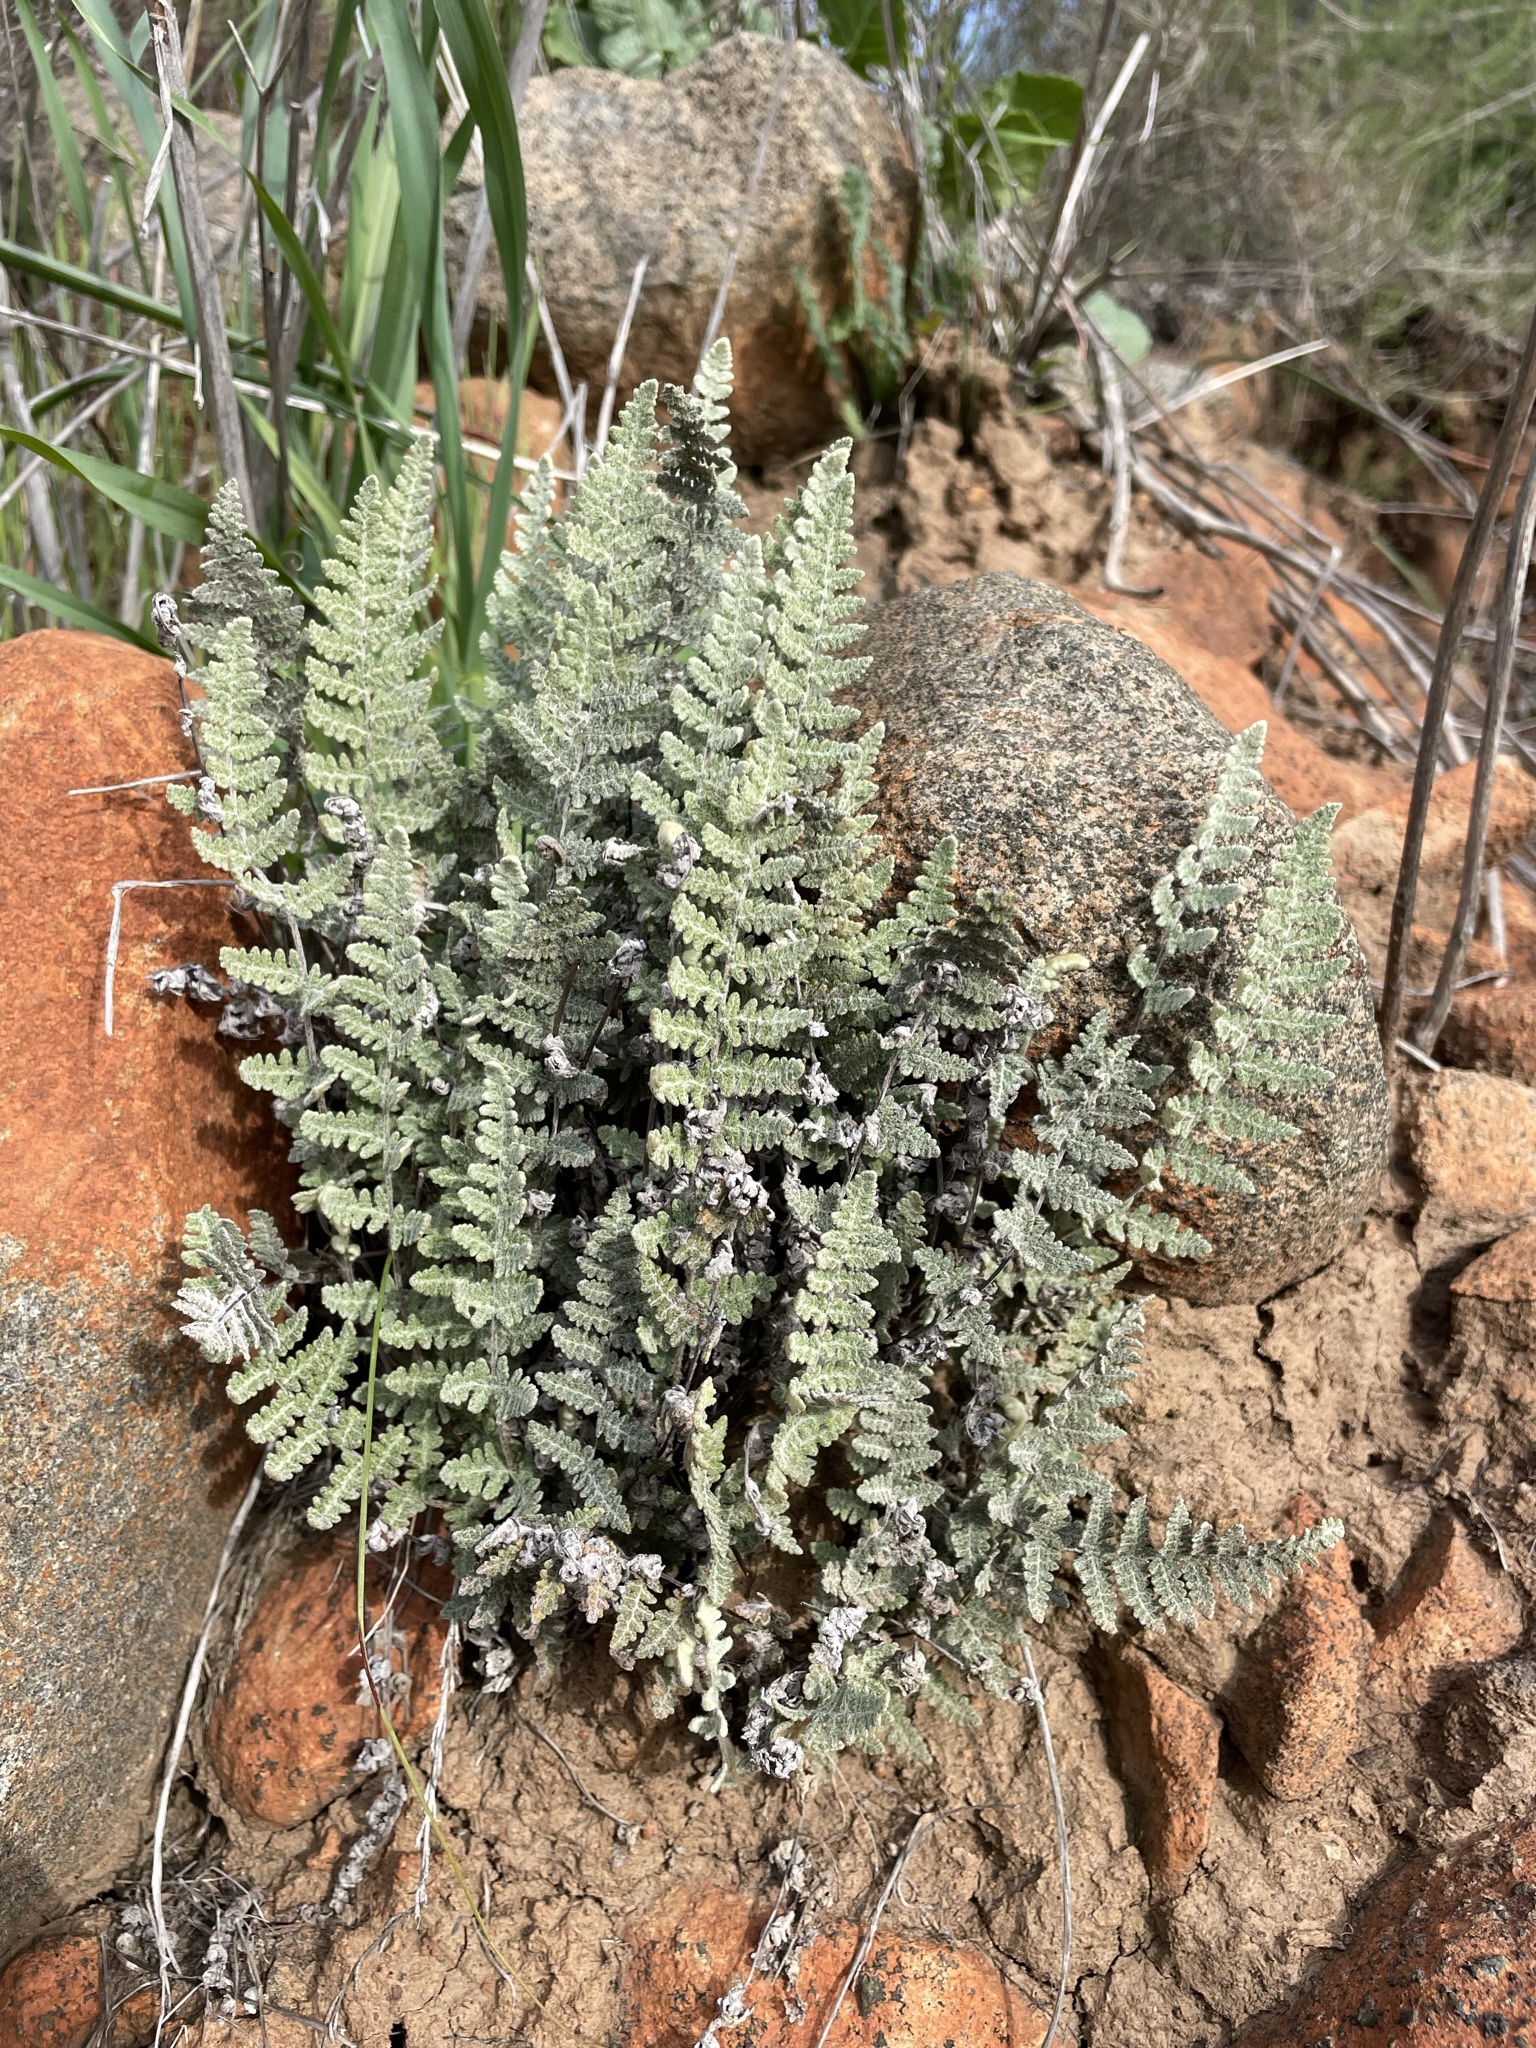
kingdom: Plantae
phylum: Tracheophyta
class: Polypodiopsida
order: Polypodiales
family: Pteridaceae
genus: Myriopteris
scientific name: Myriopteris newberryi
